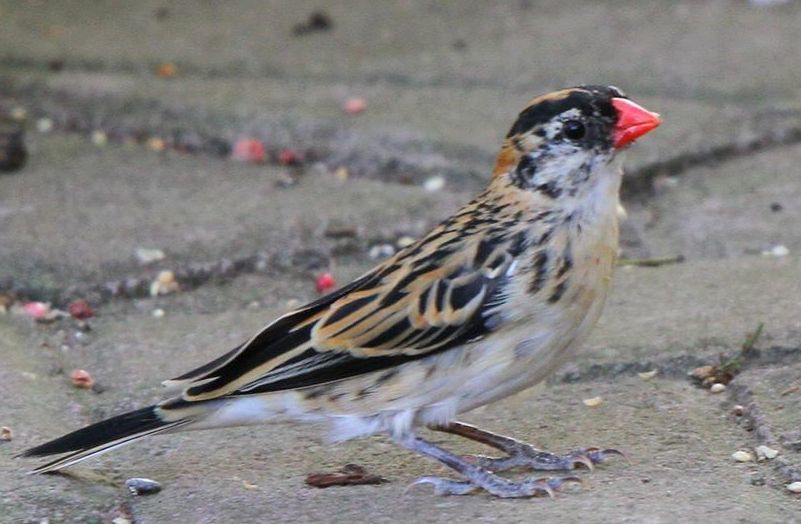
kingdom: Animalia
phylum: Chordata
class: Aves
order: Passeriformes
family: Viduidae
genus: Vidua
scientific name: Vidua macroura
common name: Pin-tailed whydah
